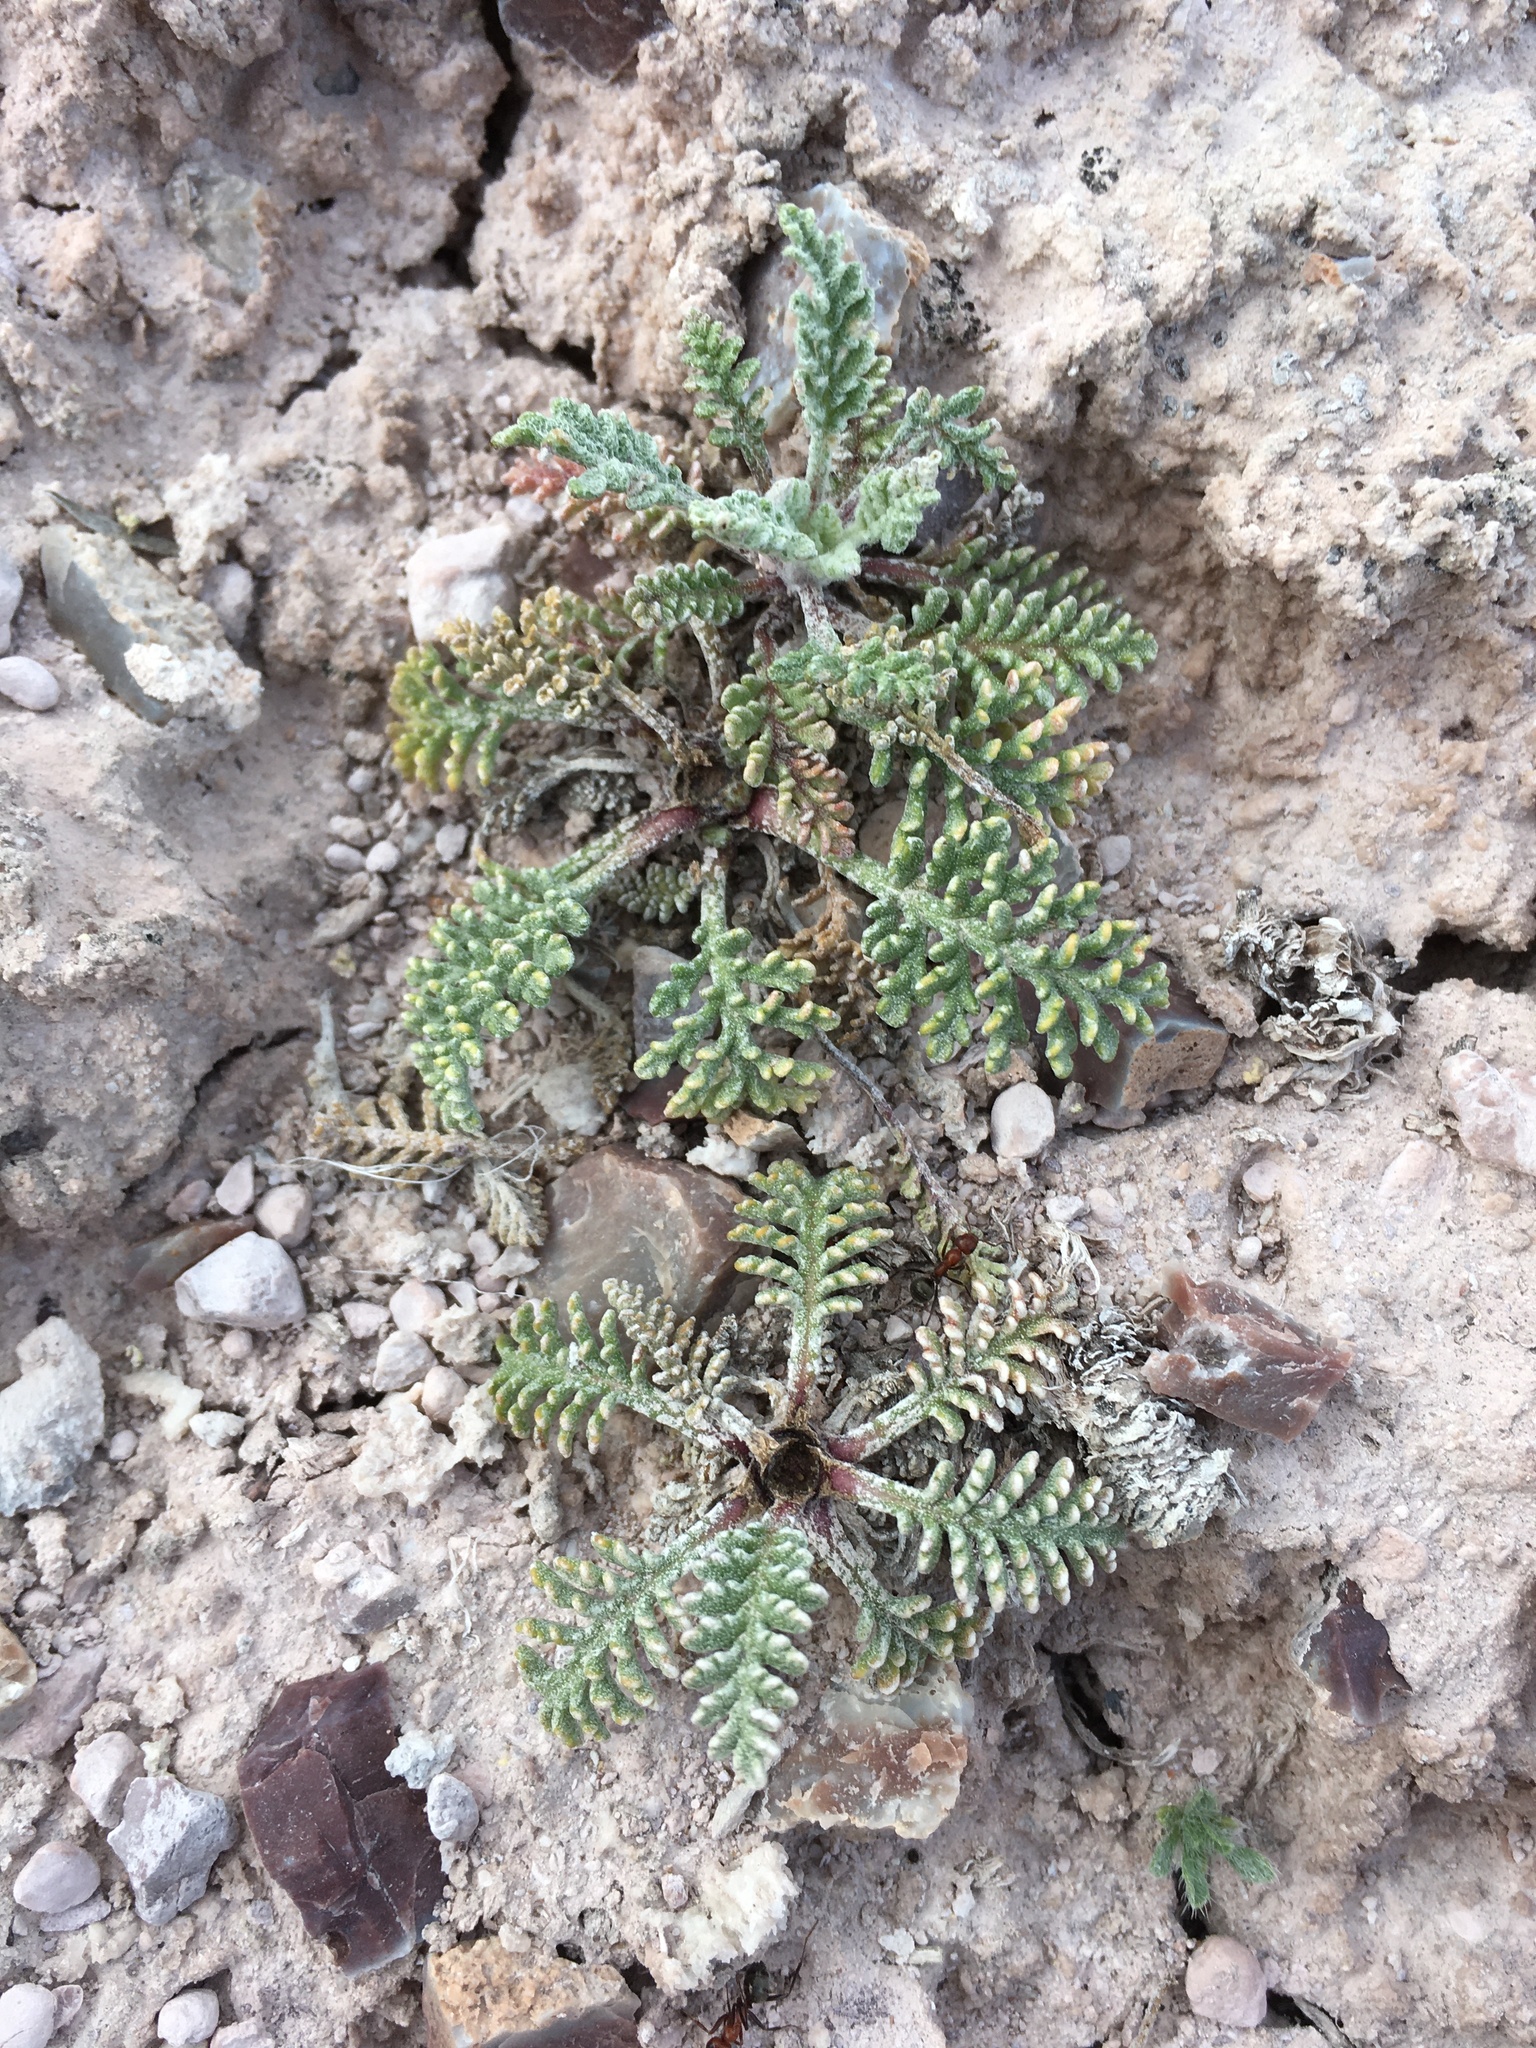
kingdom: Plantae
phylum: Tracheophyta
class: Magnoliopsida
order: Asterales
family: Asteraceae
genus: Chaenactis
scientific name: Chaenactis douglasii
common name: Hoary pincushion
